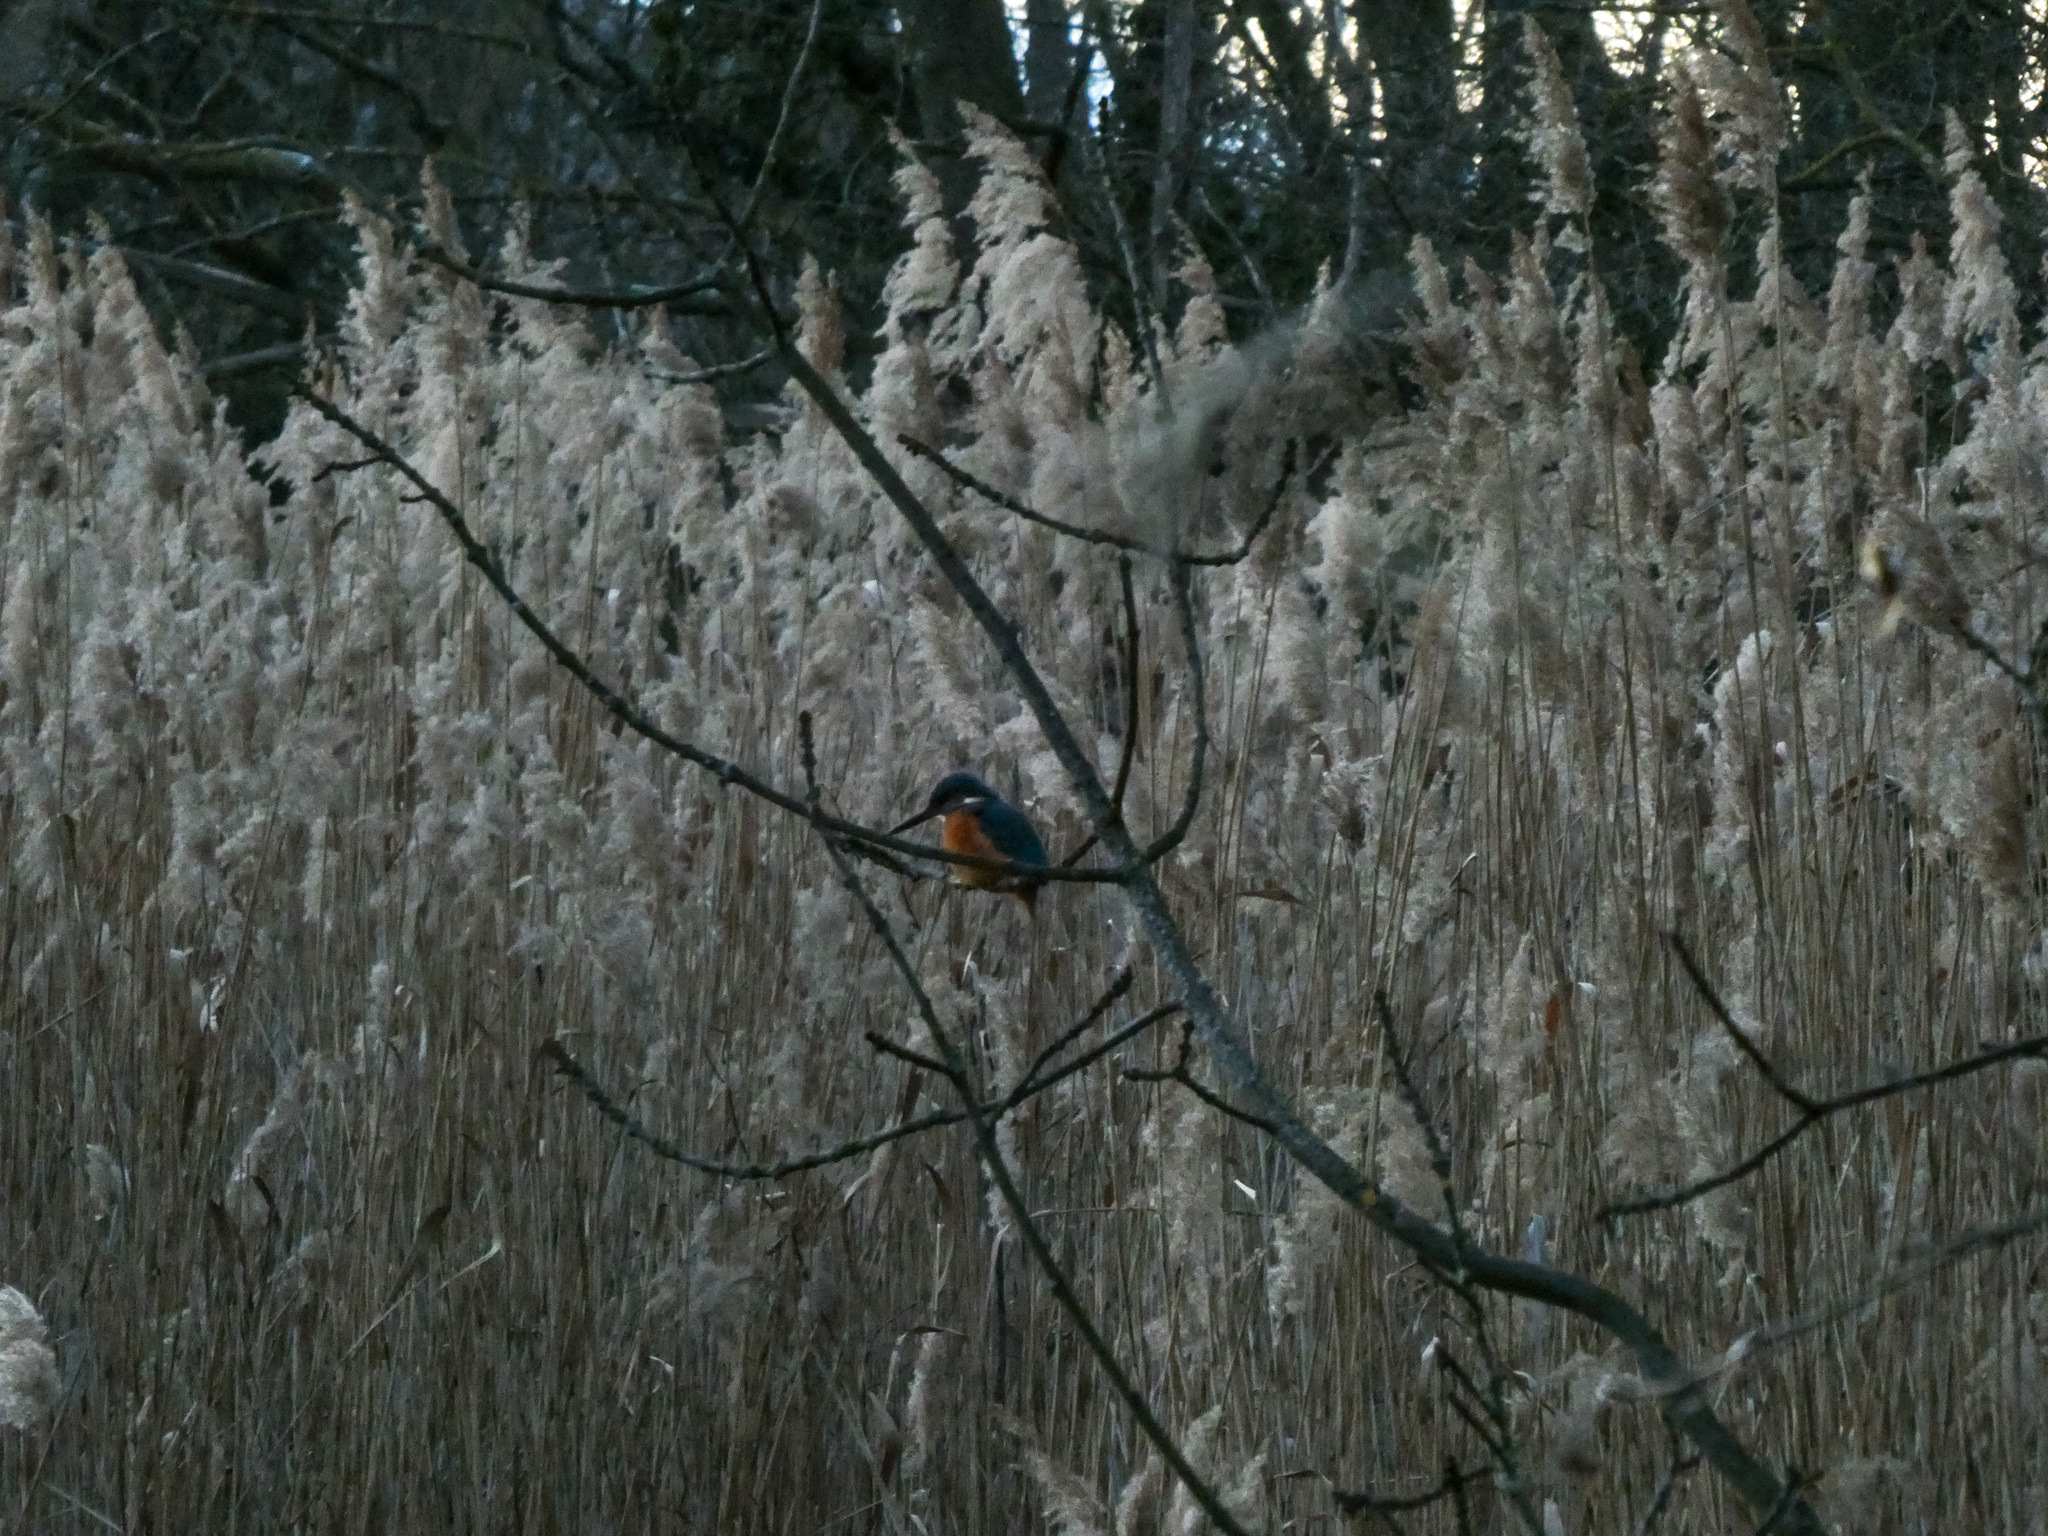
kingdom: Animalia
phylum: Chordata
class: Aves
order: Coraciiformes
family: Alcedinidae
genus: Alcedo
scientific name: Alcedo atthis
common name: Common kingfisher
